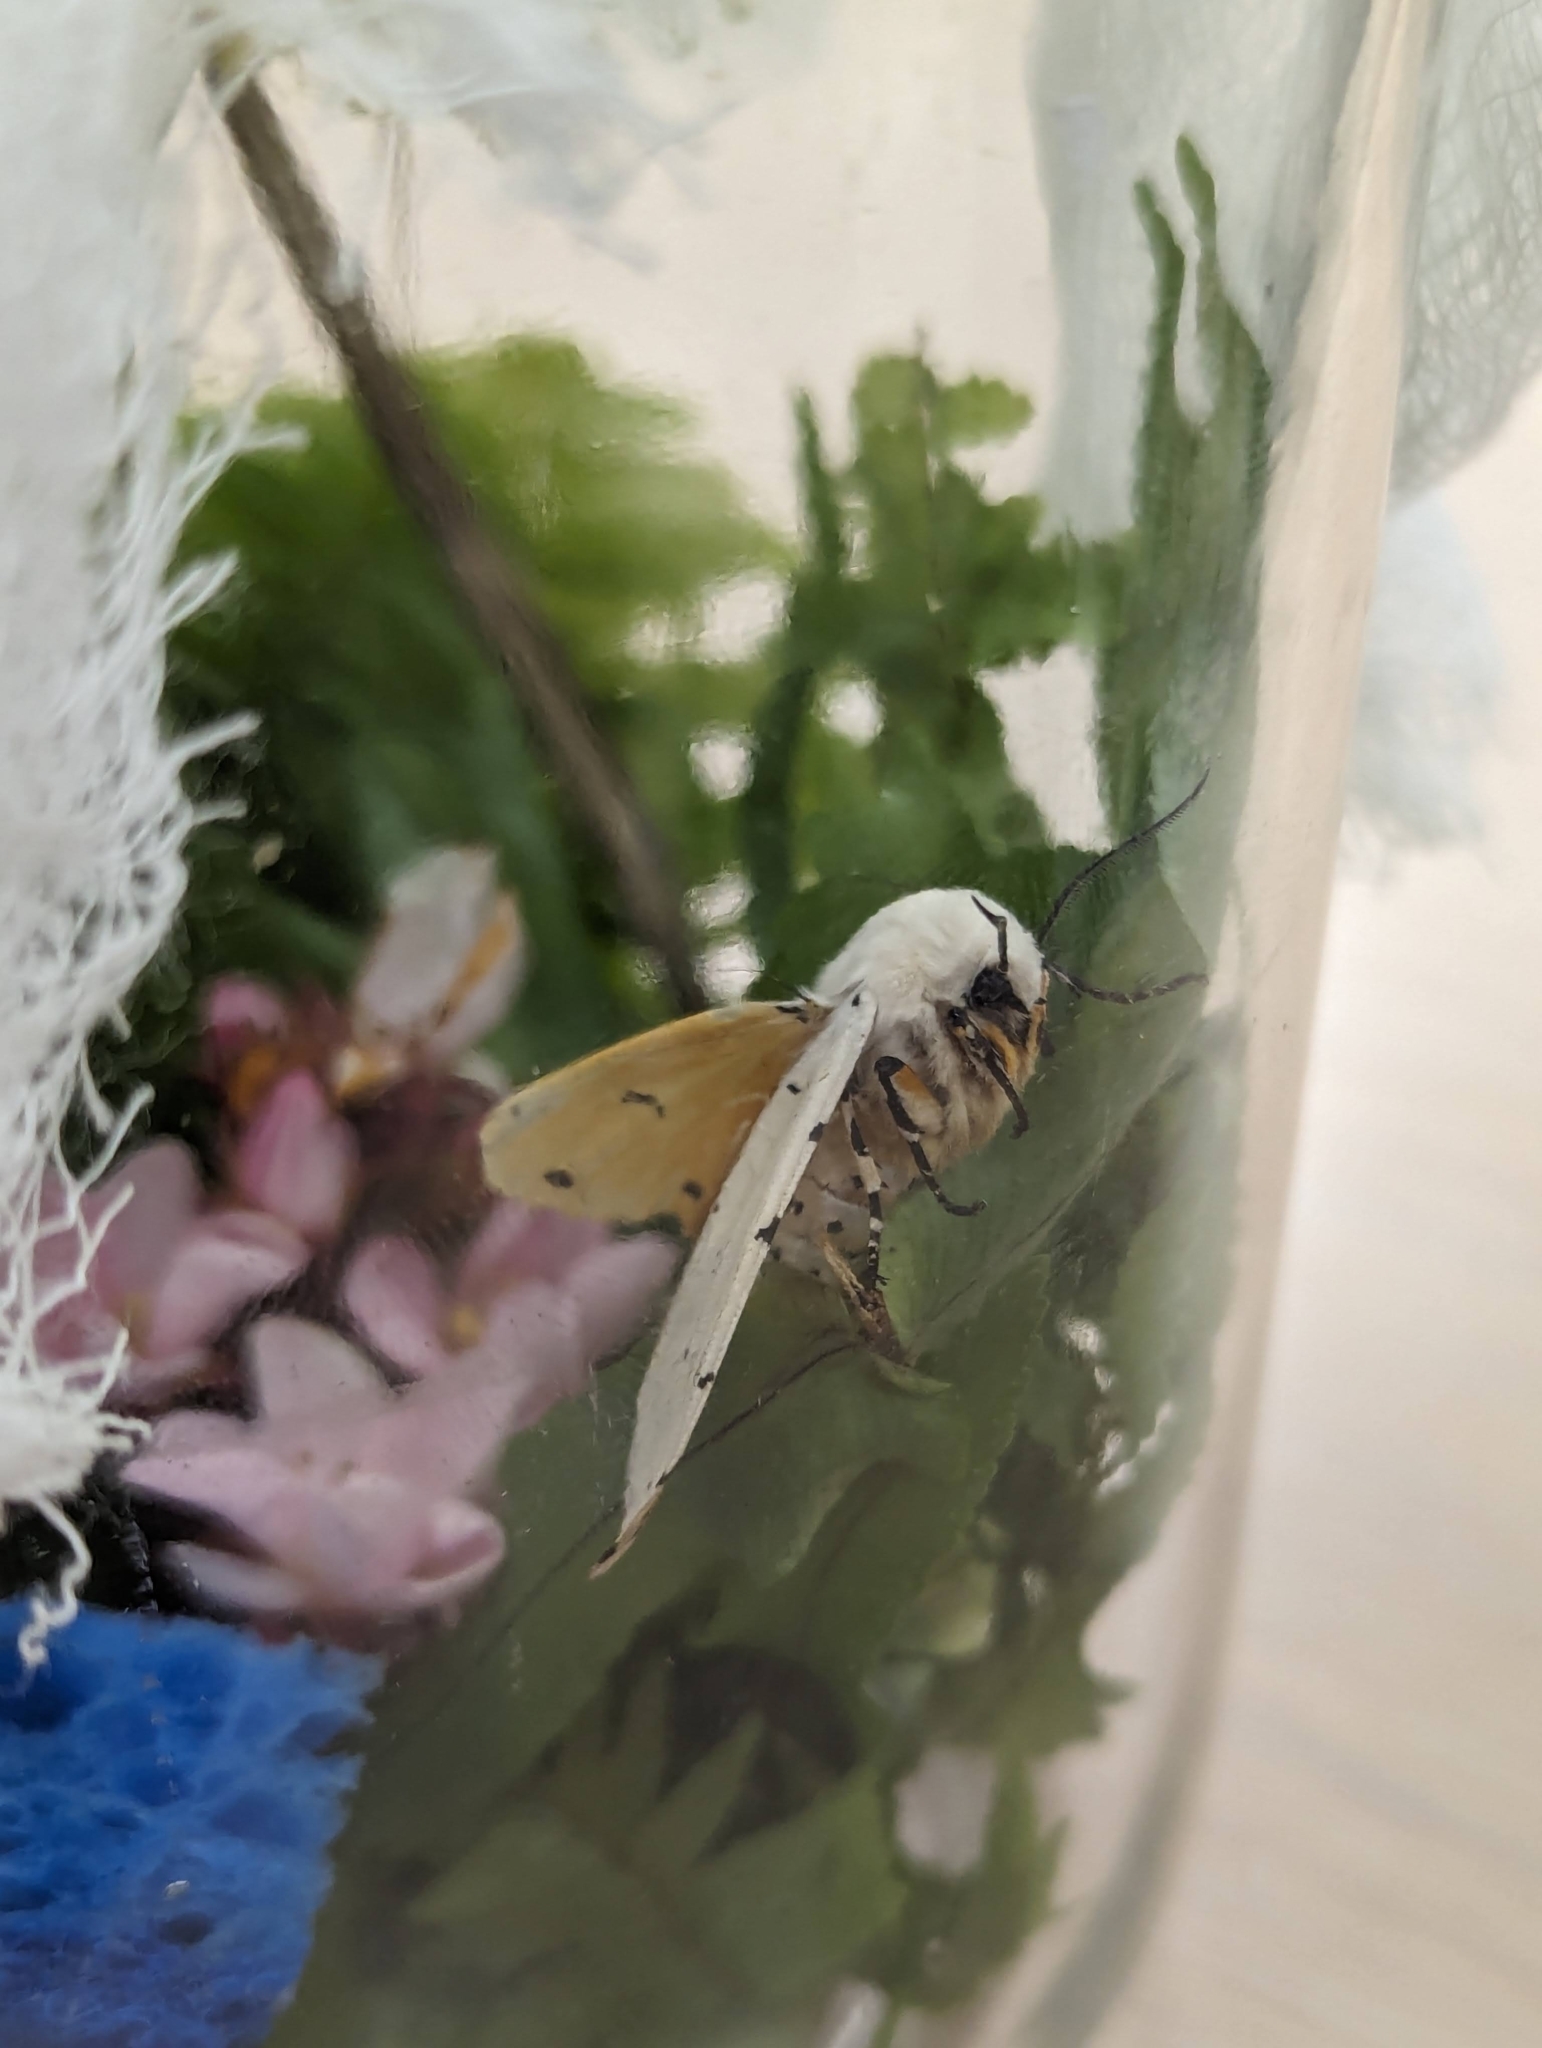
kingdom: Animalia
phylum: Arthropoda
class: Insecta
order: Lepidoptera
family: Erebidae
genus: Estigmene
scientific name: Estigmene acrea
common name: Salt marsh moth
